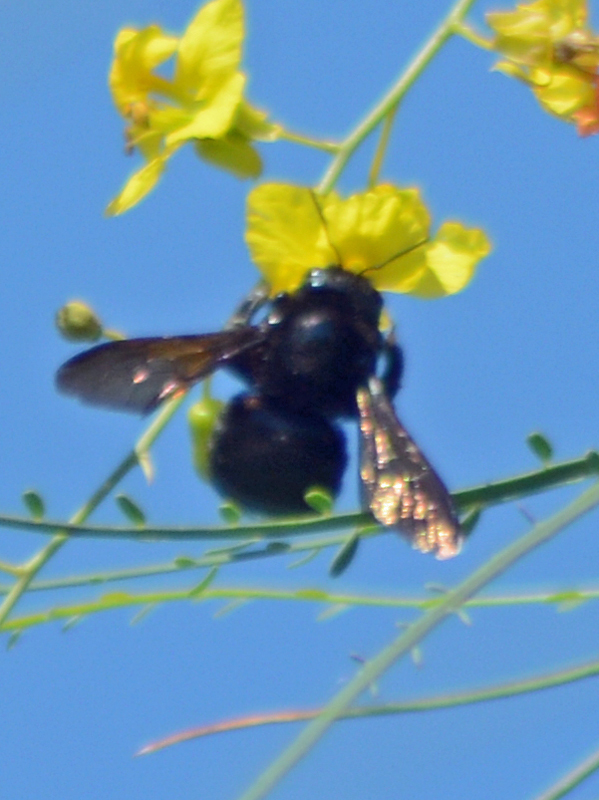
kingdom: Animalia
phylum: Arthropoda
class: Insecta
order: Hymenoptera
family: Apidae
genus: Xylocopa
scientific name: Xylocopa sonorina
